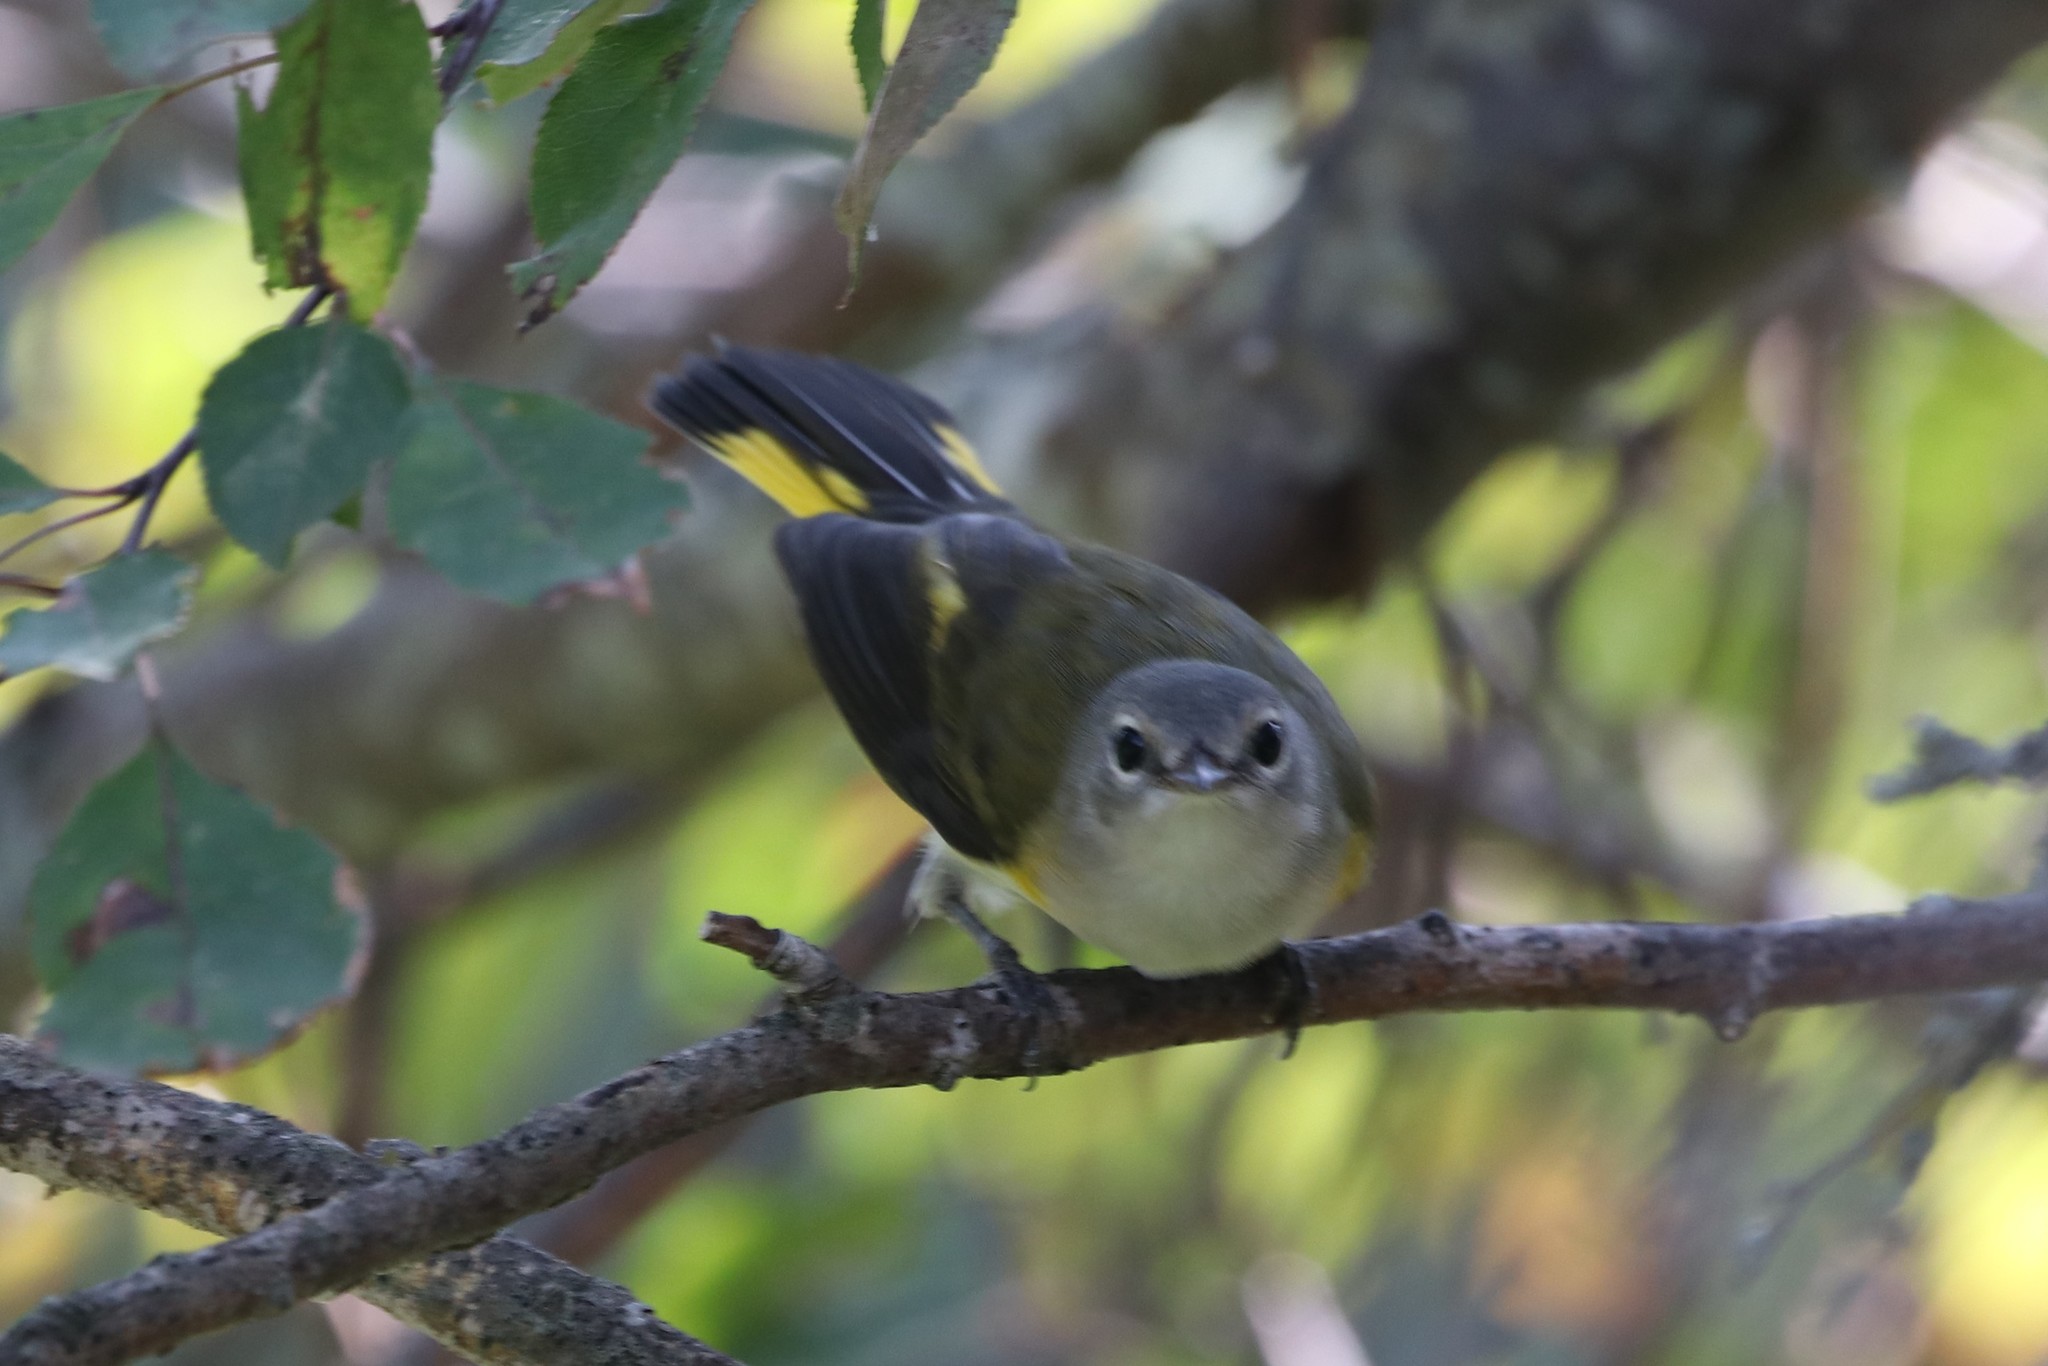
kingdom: Animalia
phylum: Chordata
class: Aves
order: Passeriformes
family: Parulidae
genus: Setophaga
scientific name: Setophaga ruticilla
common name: American redstart
